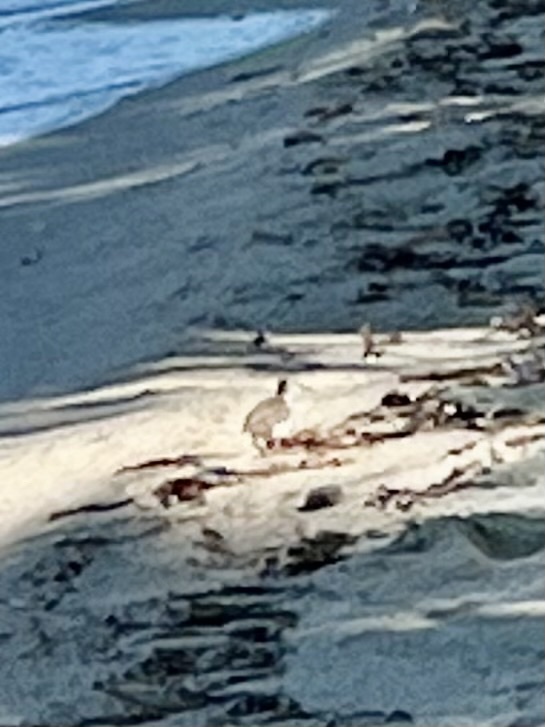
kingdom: Animalia
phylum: Chordata
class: Aves
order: Charadriiformes
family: Scolopacidae
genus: Actitis
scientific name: Actitis macularius
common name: Spotted sandpiper
